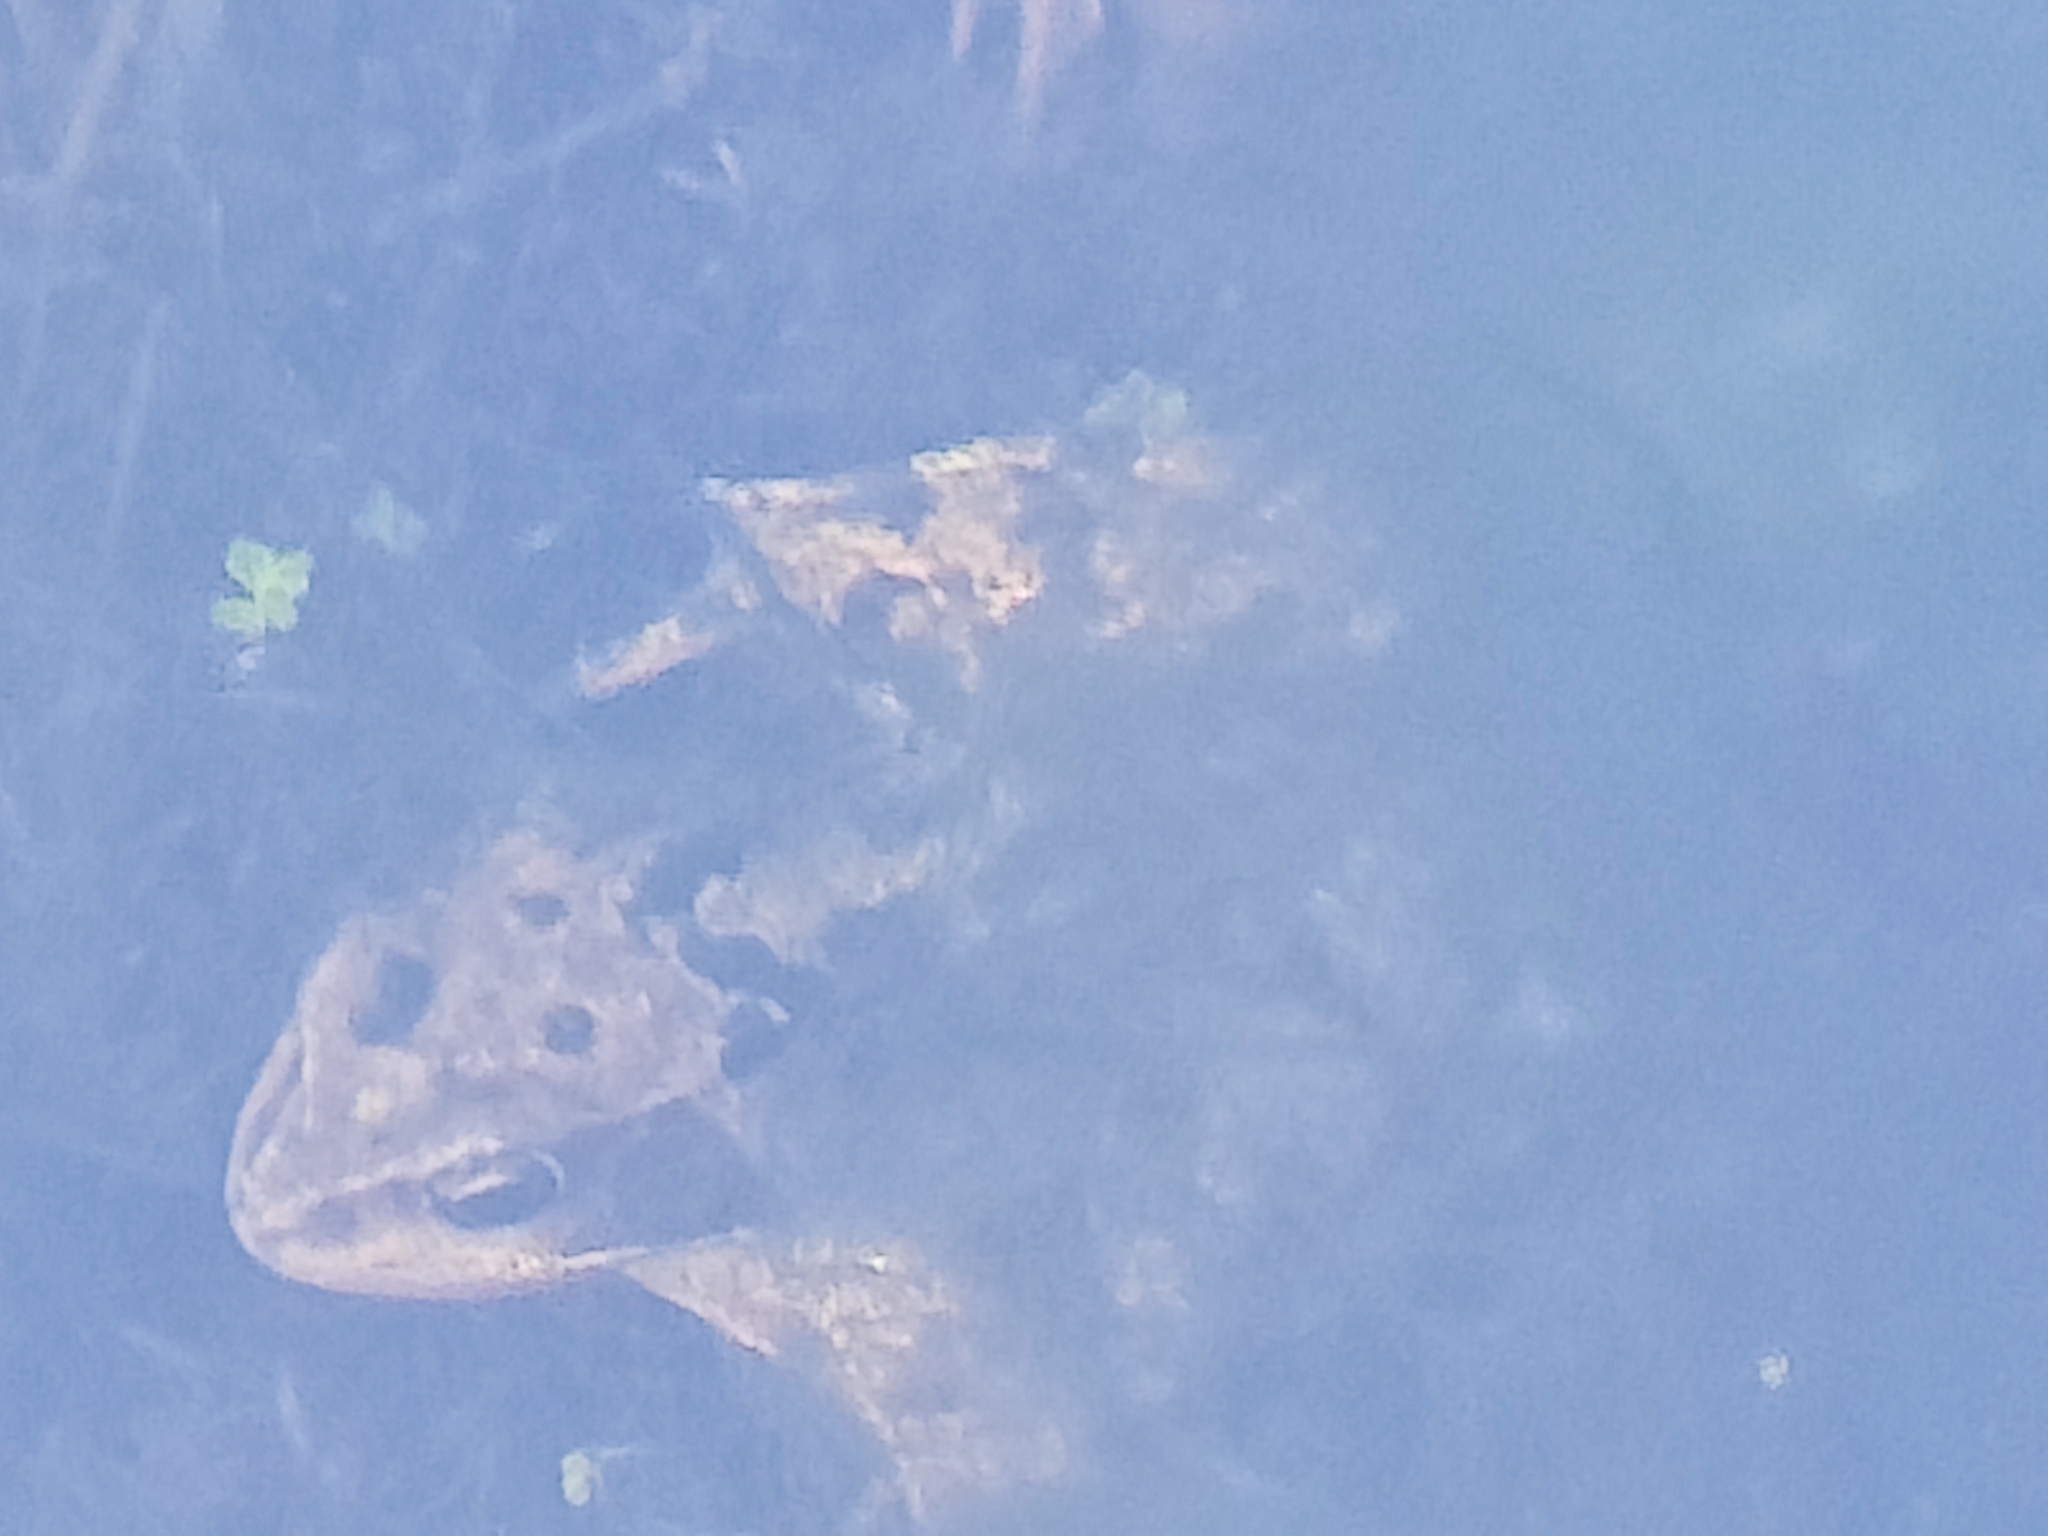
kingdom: Animalia
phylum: Chordata
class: Amphibia
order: Anura
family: Ranidae
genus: Rana
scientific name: Rana temporaria
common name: Common frog
